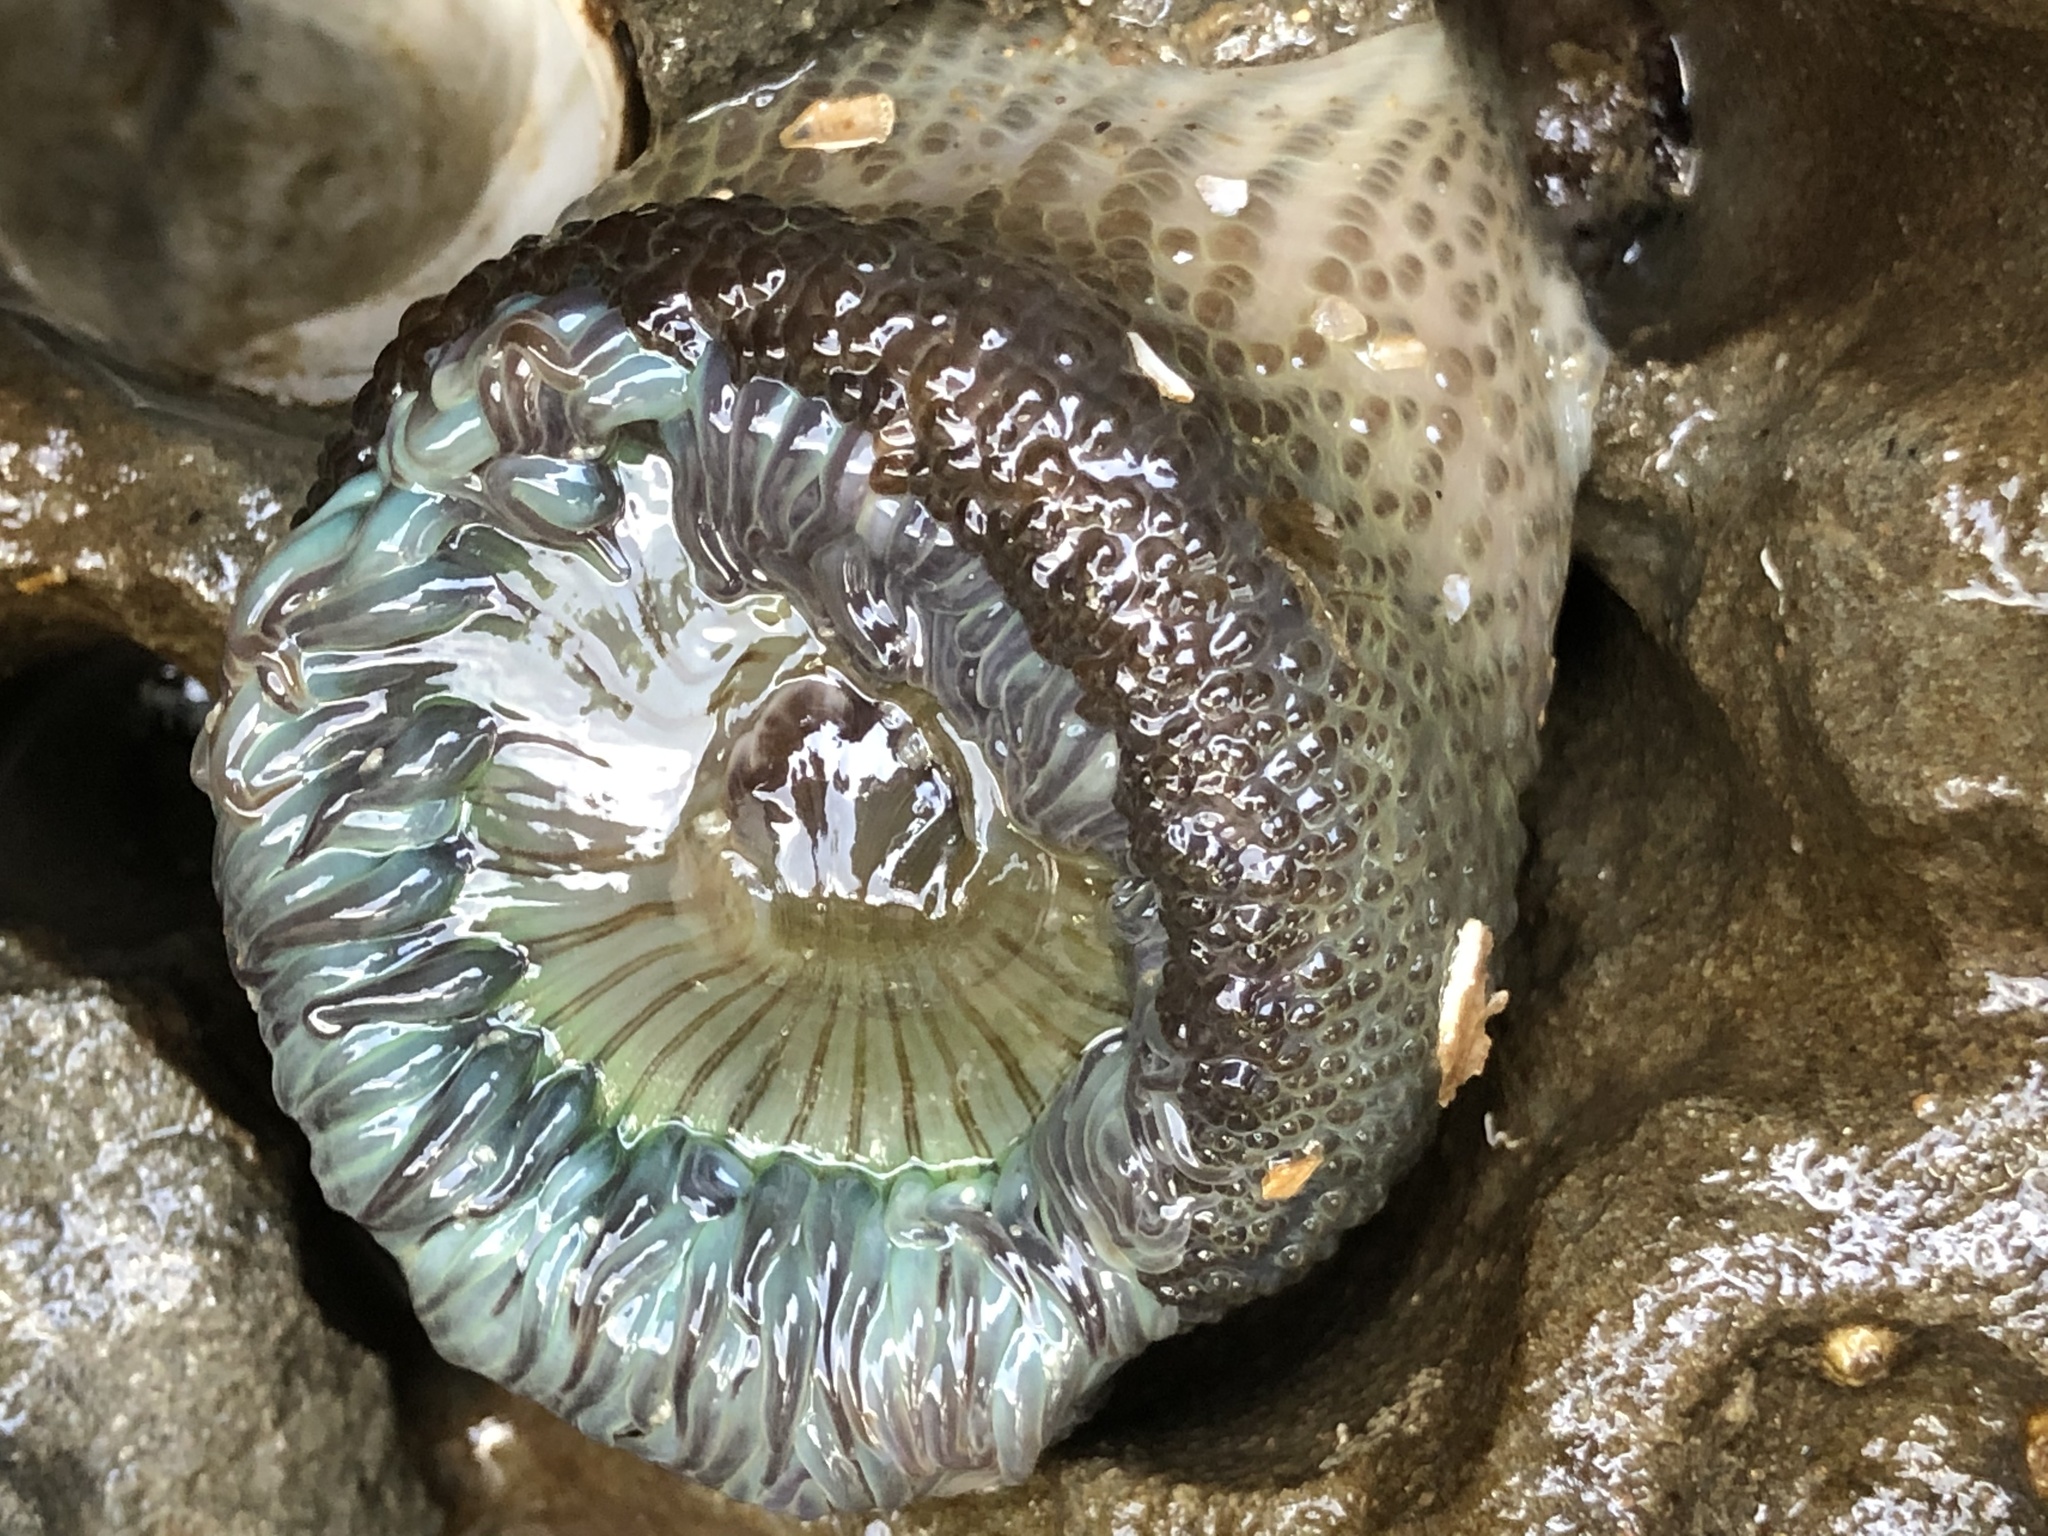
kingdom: Animalia
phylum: Cnidaria
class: Anthozoa
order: Actiniaria
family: Actiniidae
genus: Anthopleura
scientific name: Anthopleura sola
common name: Sun anemone
